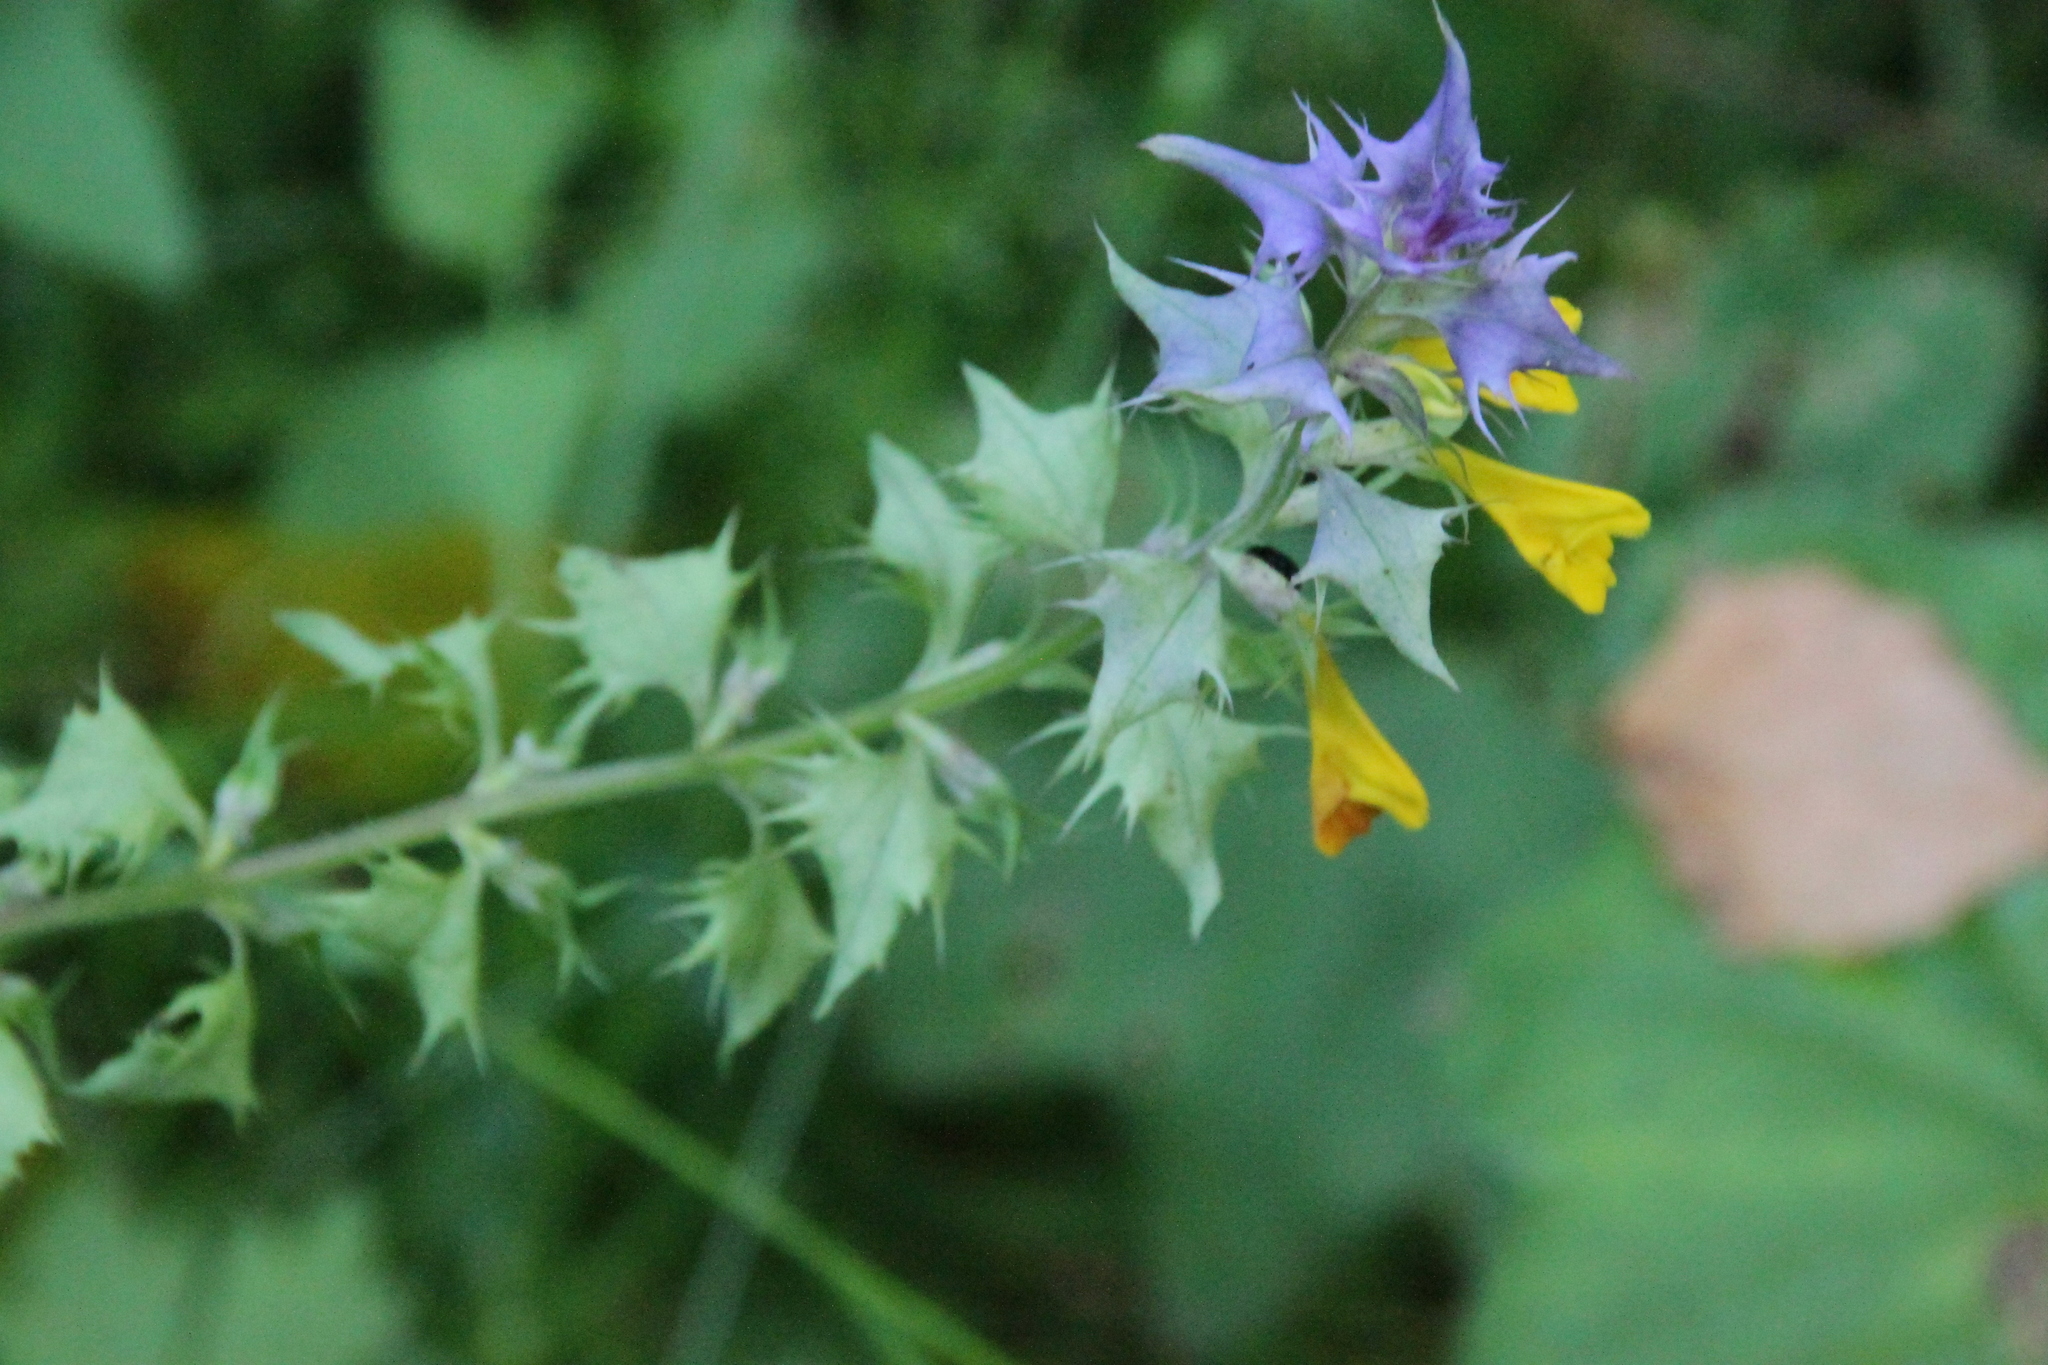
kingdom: Plantae
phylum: Tracheophyta
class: Magnoliopsida
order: Lamiales
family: Orobanchaceae
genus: Melampyrum
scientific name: Melampyrum nemorosum
